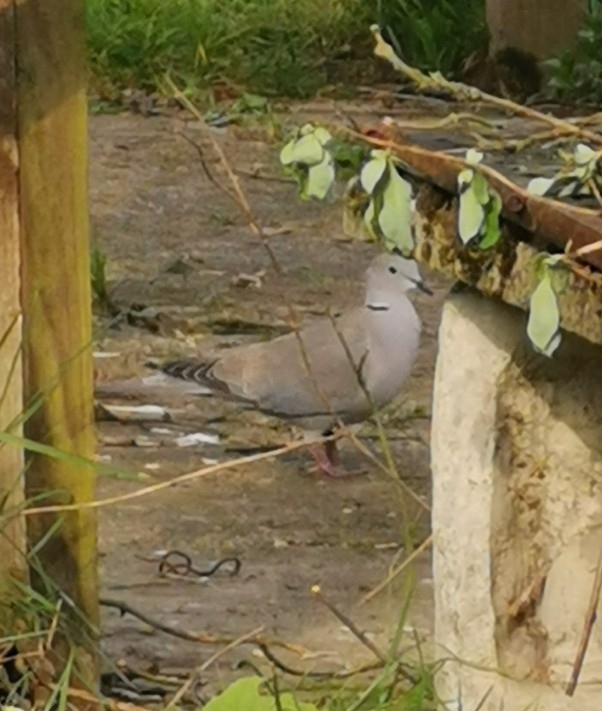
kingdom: Animalia
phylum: Chordata
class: Aves
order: Columbiformes
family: Columbidae
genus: Streptopelia
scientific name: Streptopelia decaocto
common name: Eurasian collared dove
